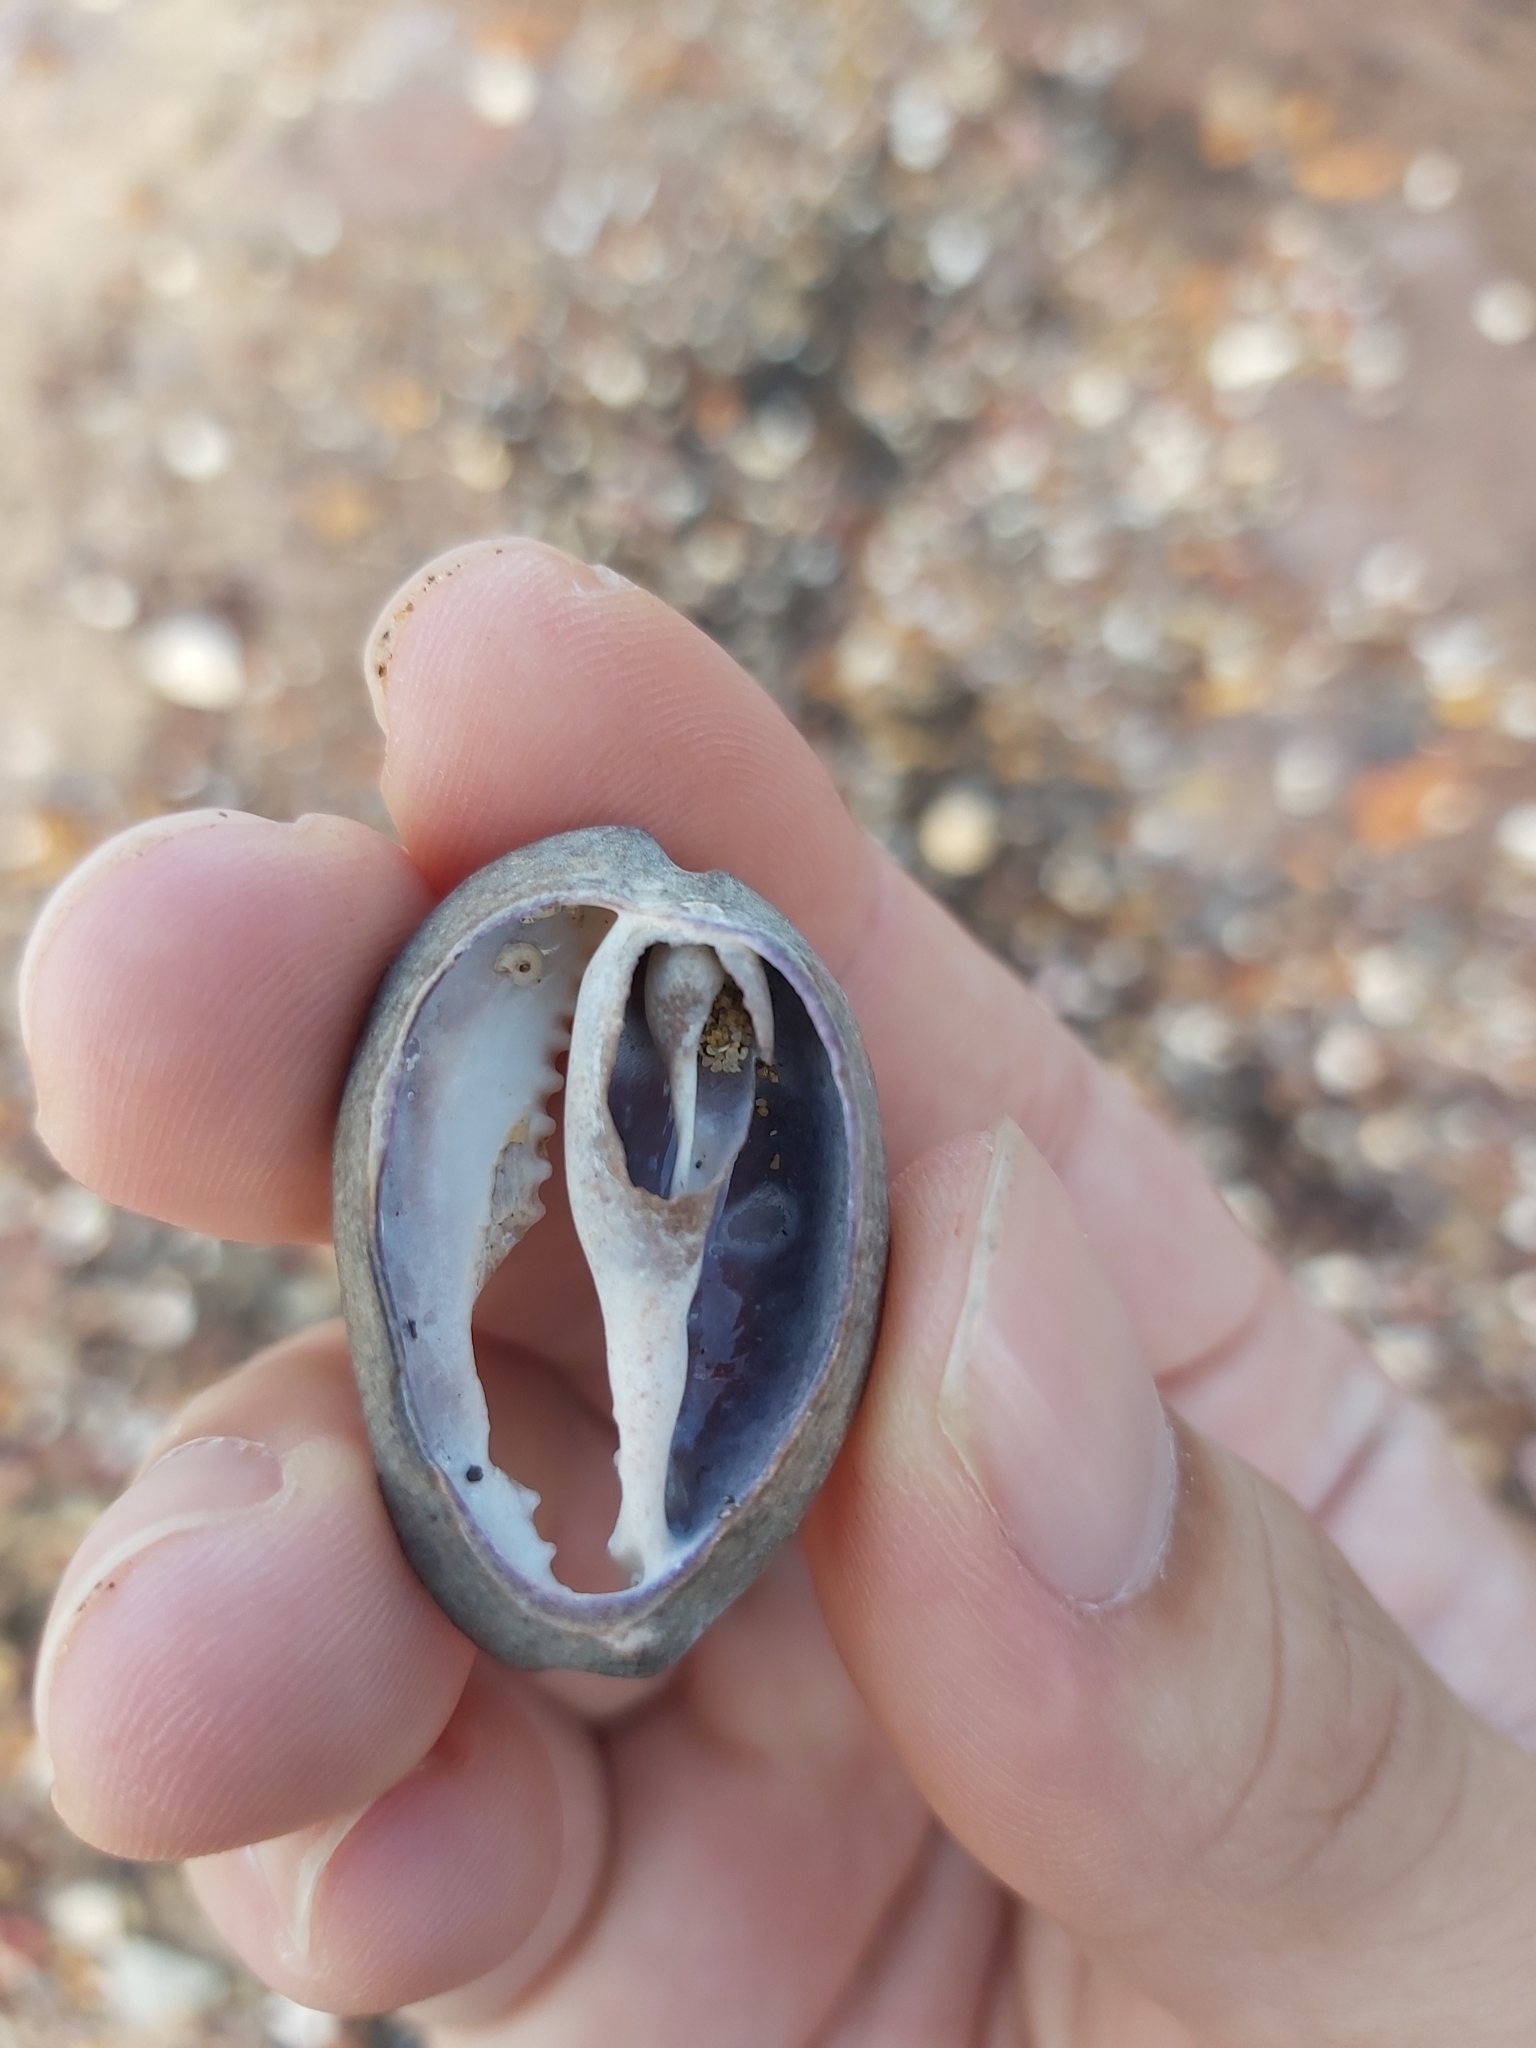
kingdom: Animalia
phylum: Mollusca
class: Gastropoda
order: Littorinimorpha
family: Cypraeidae
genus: Monetaria
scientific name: Monetaria caputserpentis
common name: Serpent's head cowrie
